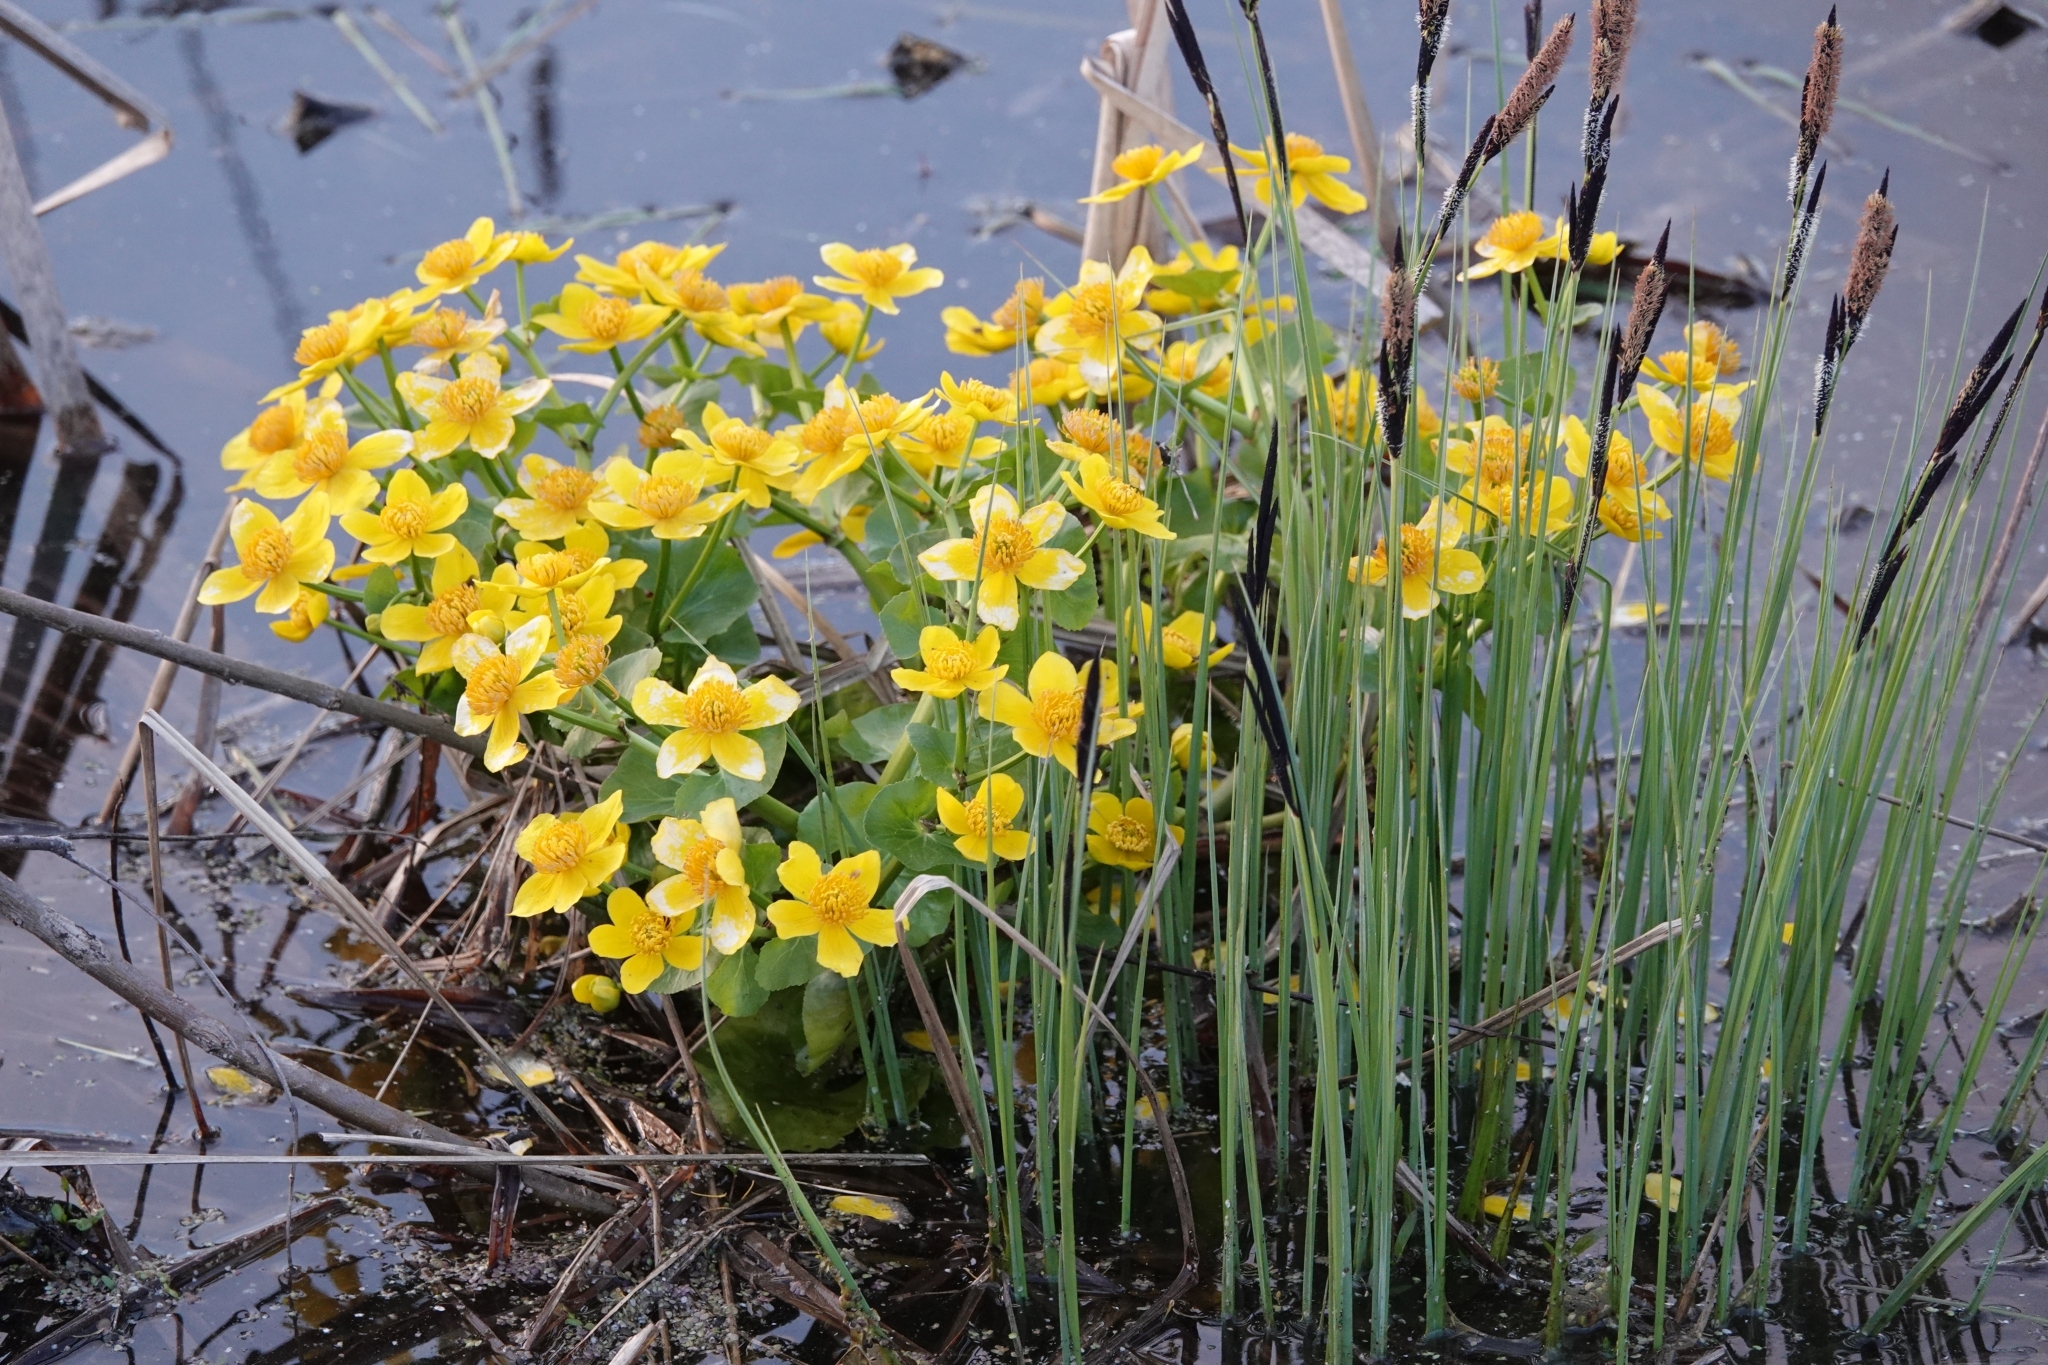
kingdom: Plantae
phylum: Tracheophyta
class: Magnoliopsida
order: Ranunculales
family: Ranunculaceae
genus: Caltha
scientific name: Caltha palustris
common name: Marsh marigold
